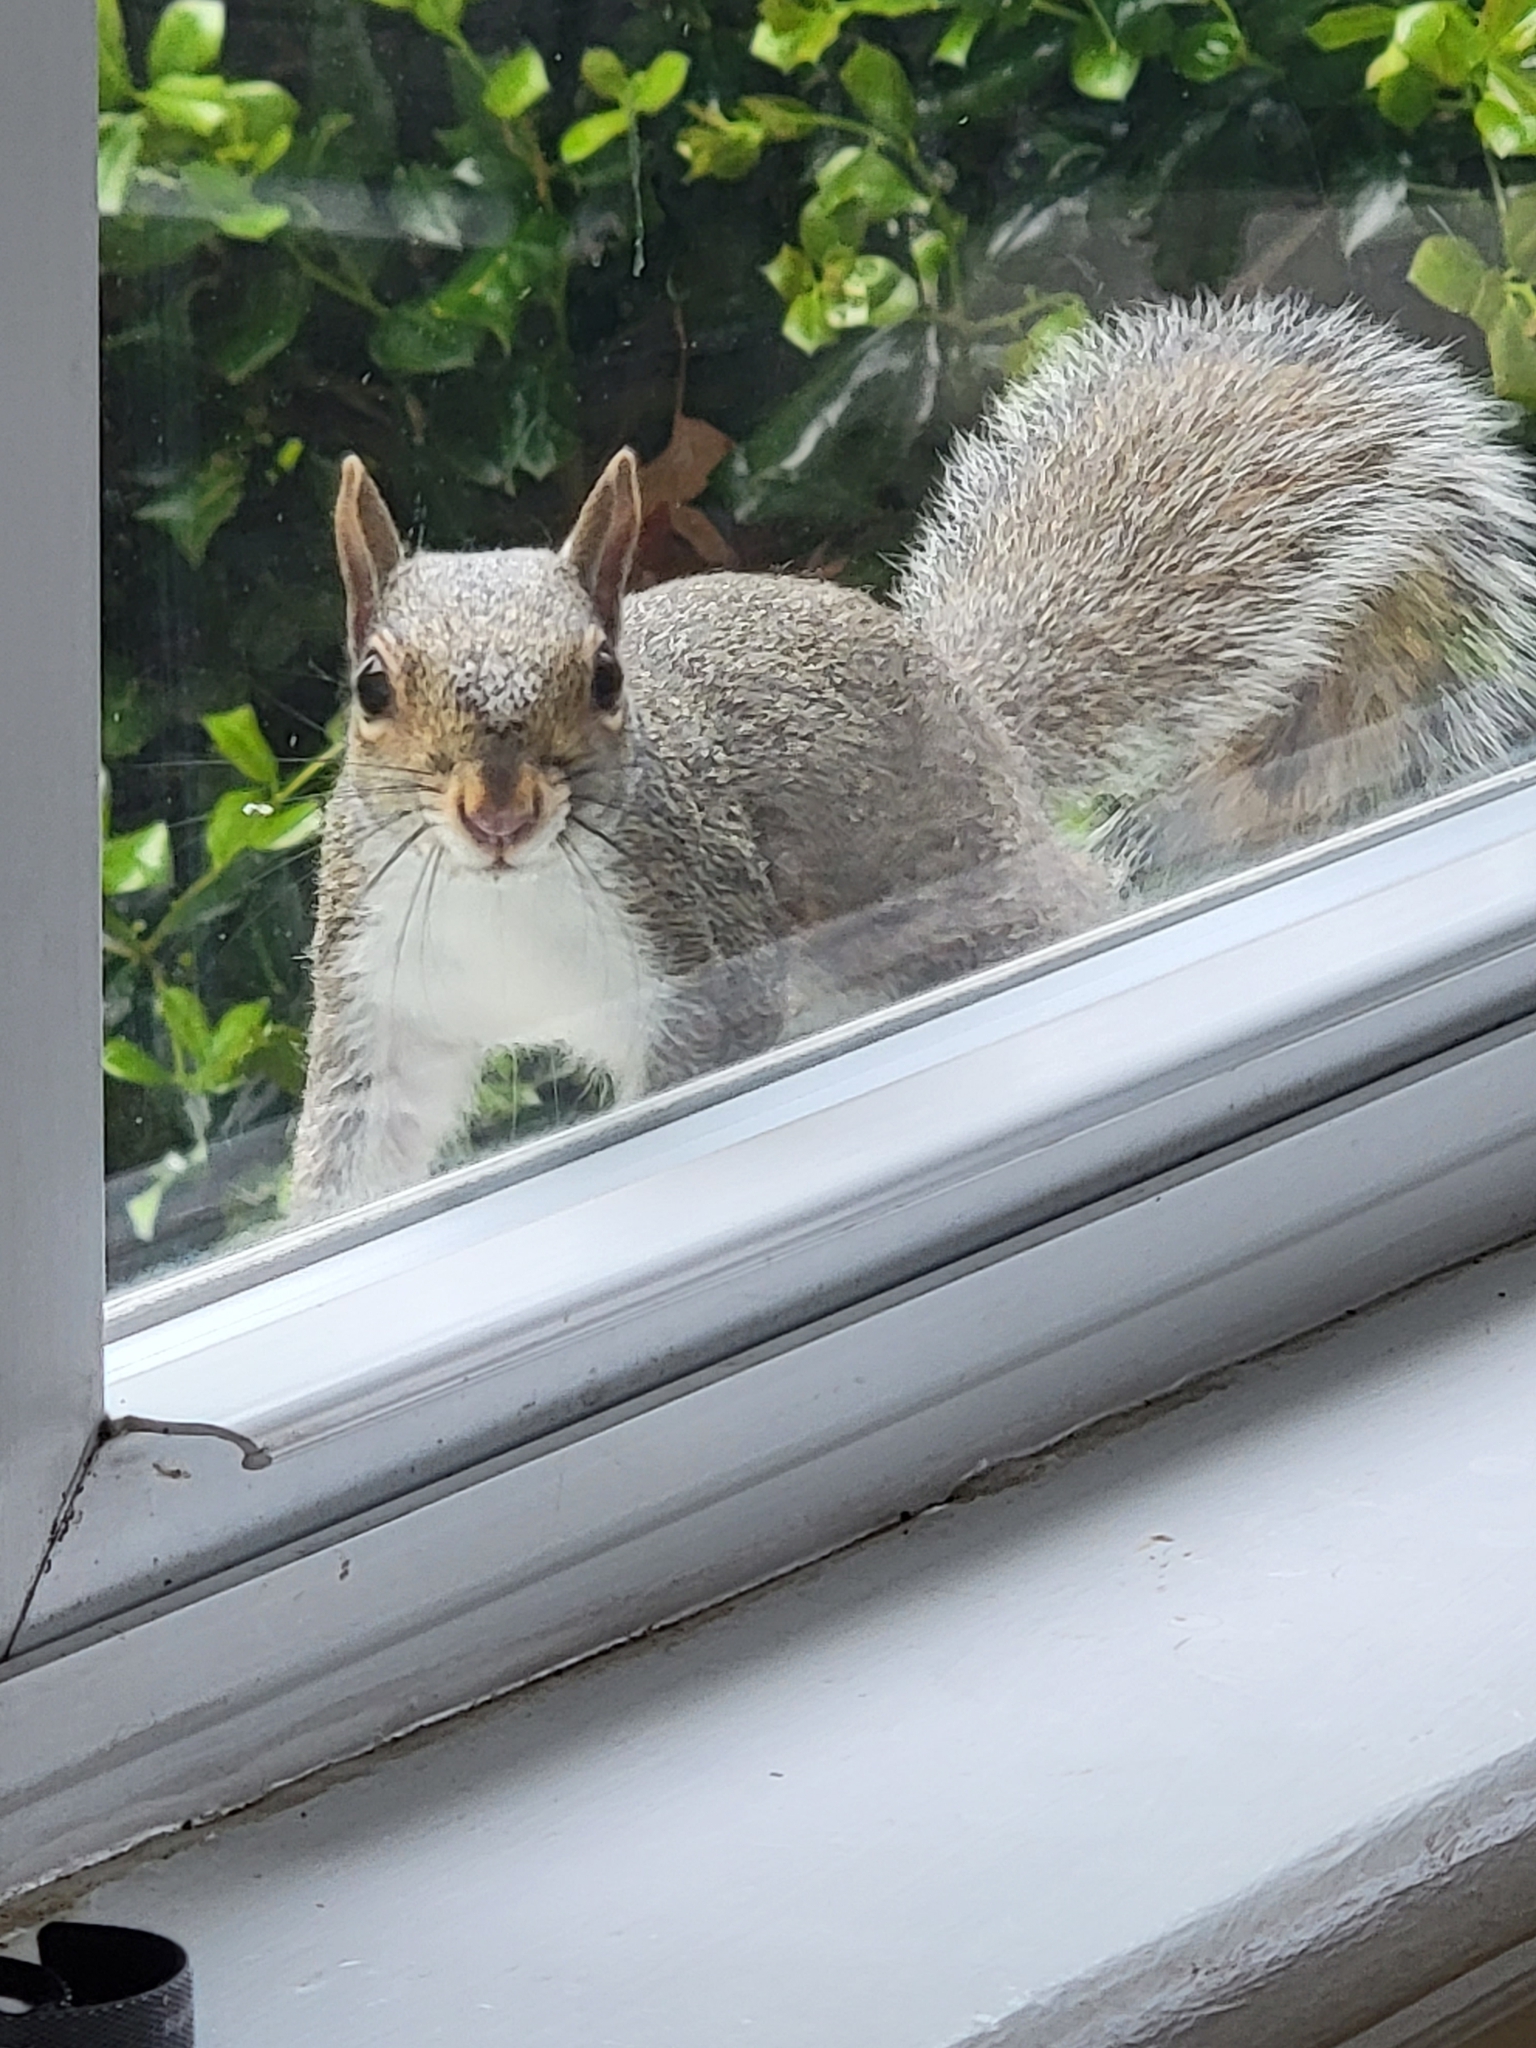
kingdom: Animalia
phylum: Chordata
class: Mammalia
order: Rodentia
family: Sciuridae
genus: Sciurus
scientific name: Sciurus carolinensis
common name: Eastern gray squirrel
